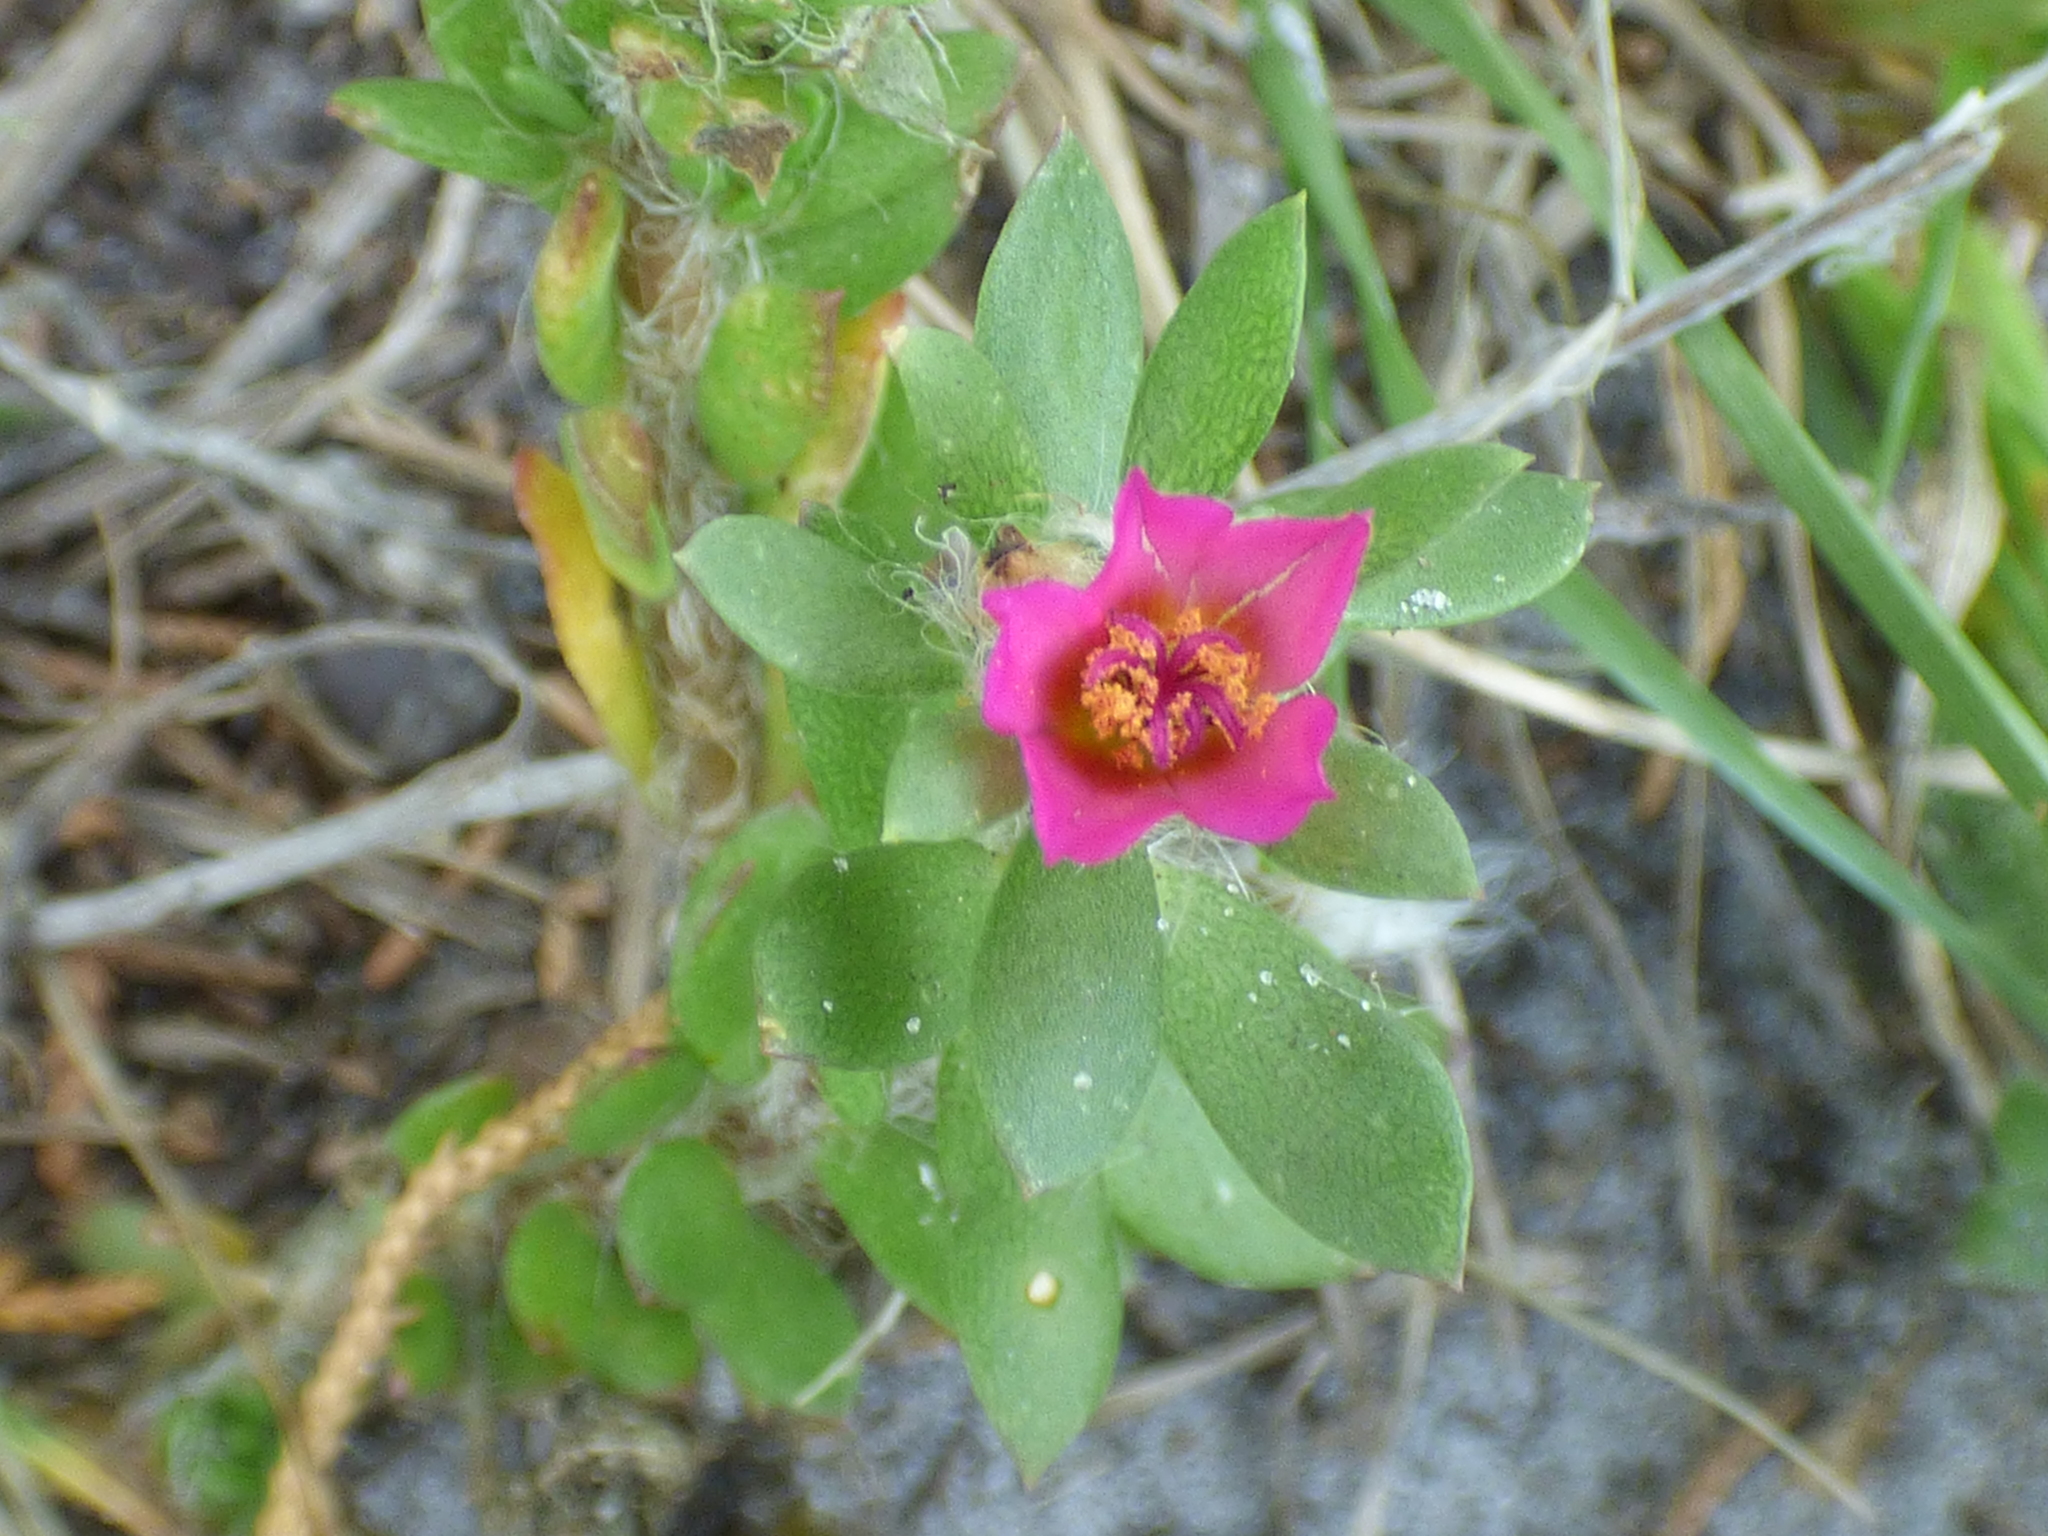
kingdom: Plantae
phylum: Tracheophyta
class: Magnoliopsida
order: Caryophyllales
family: Portulacaceae
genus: Portulaca
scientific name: Portulaca amilis
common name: Paraguayan purslane
